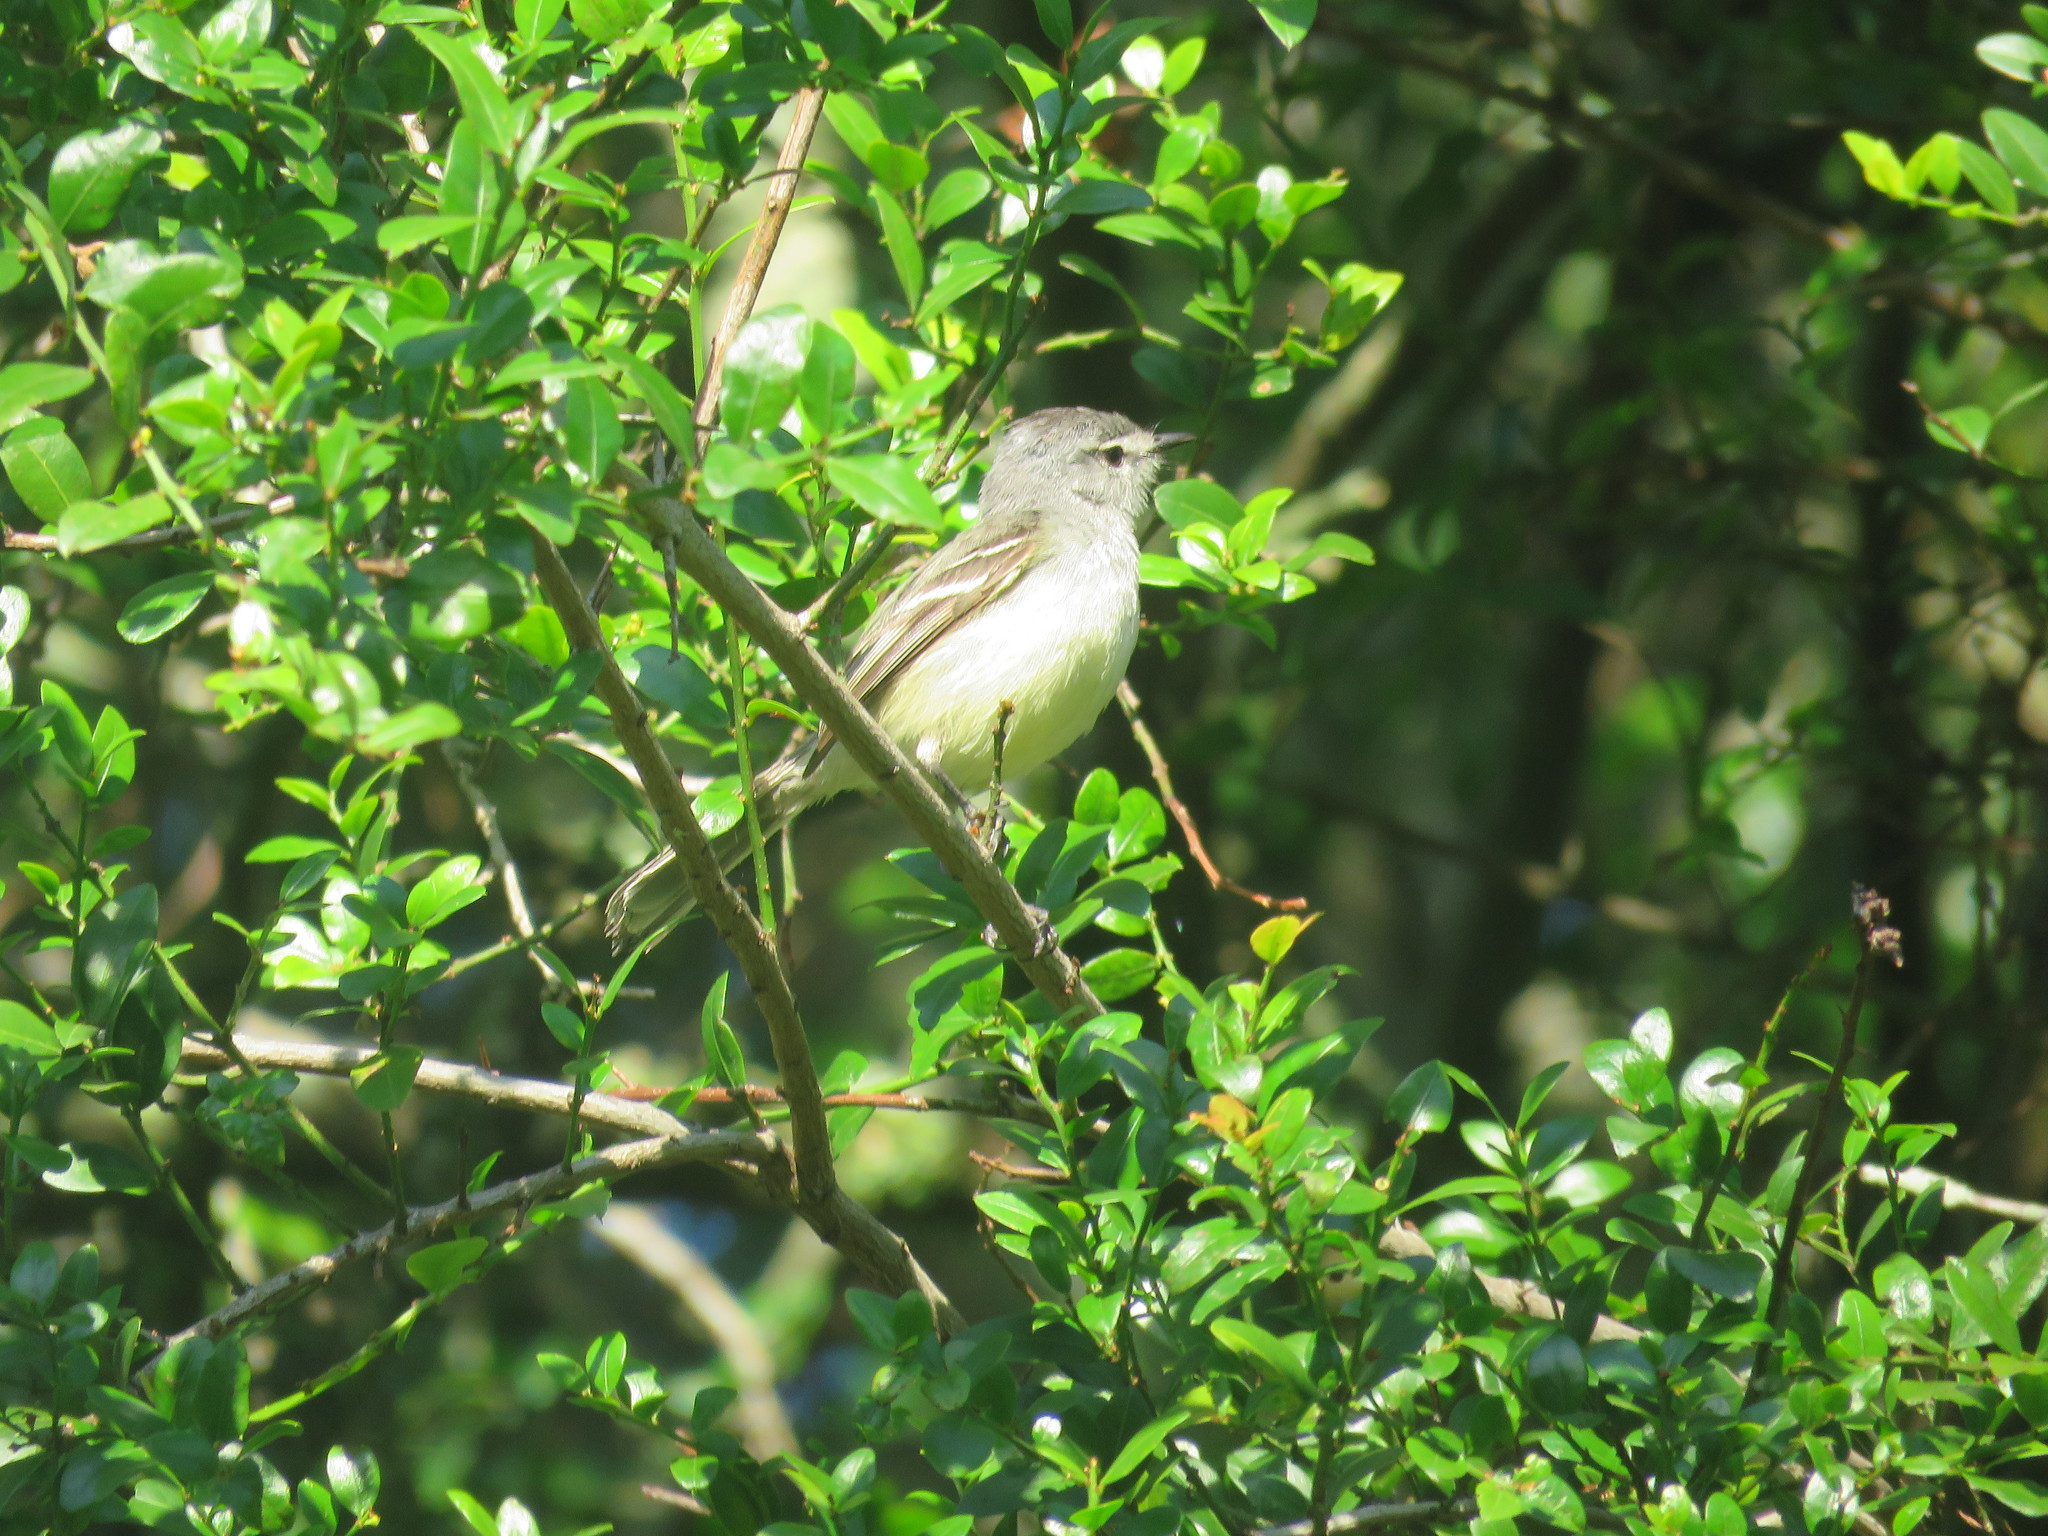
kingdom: Animalia
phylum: Chordata
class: Aves
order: Passeriformes
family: Tyrannidae
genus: Serpophaga
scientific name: Serpophaga subcristata
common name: White-crested tyrannulet
